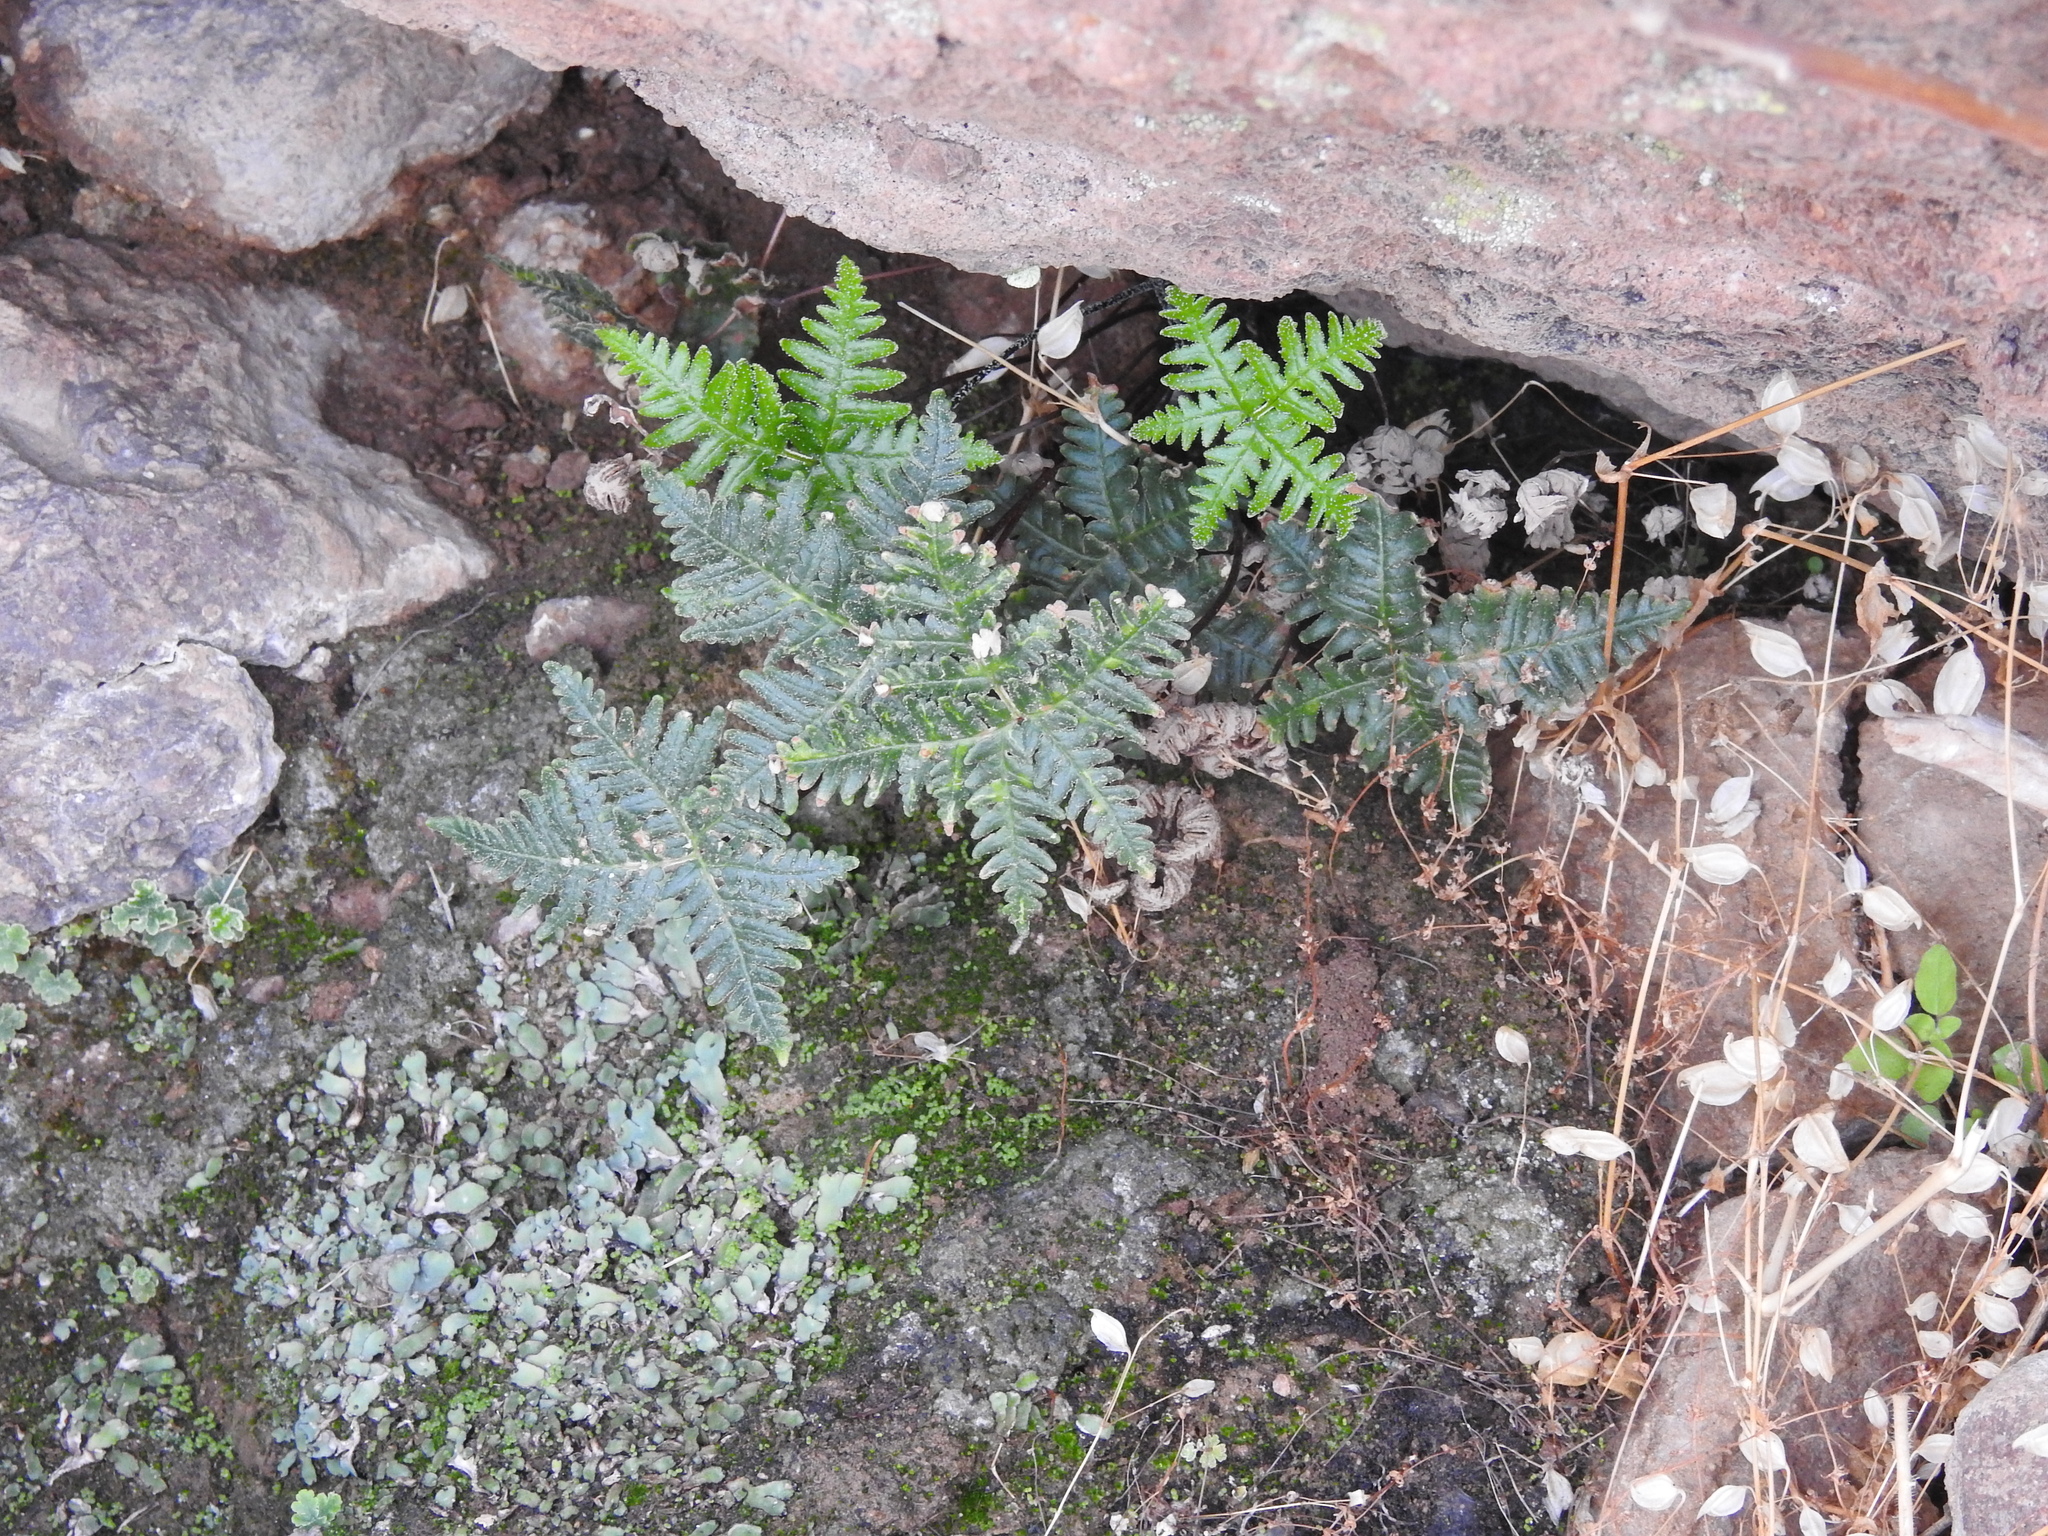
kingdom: Plantae
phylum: Tracheophyta
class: Polypodiopsida
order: Polypodiales
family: Pteridaceae
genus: Notholaena
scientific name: Notholaena standleyi
